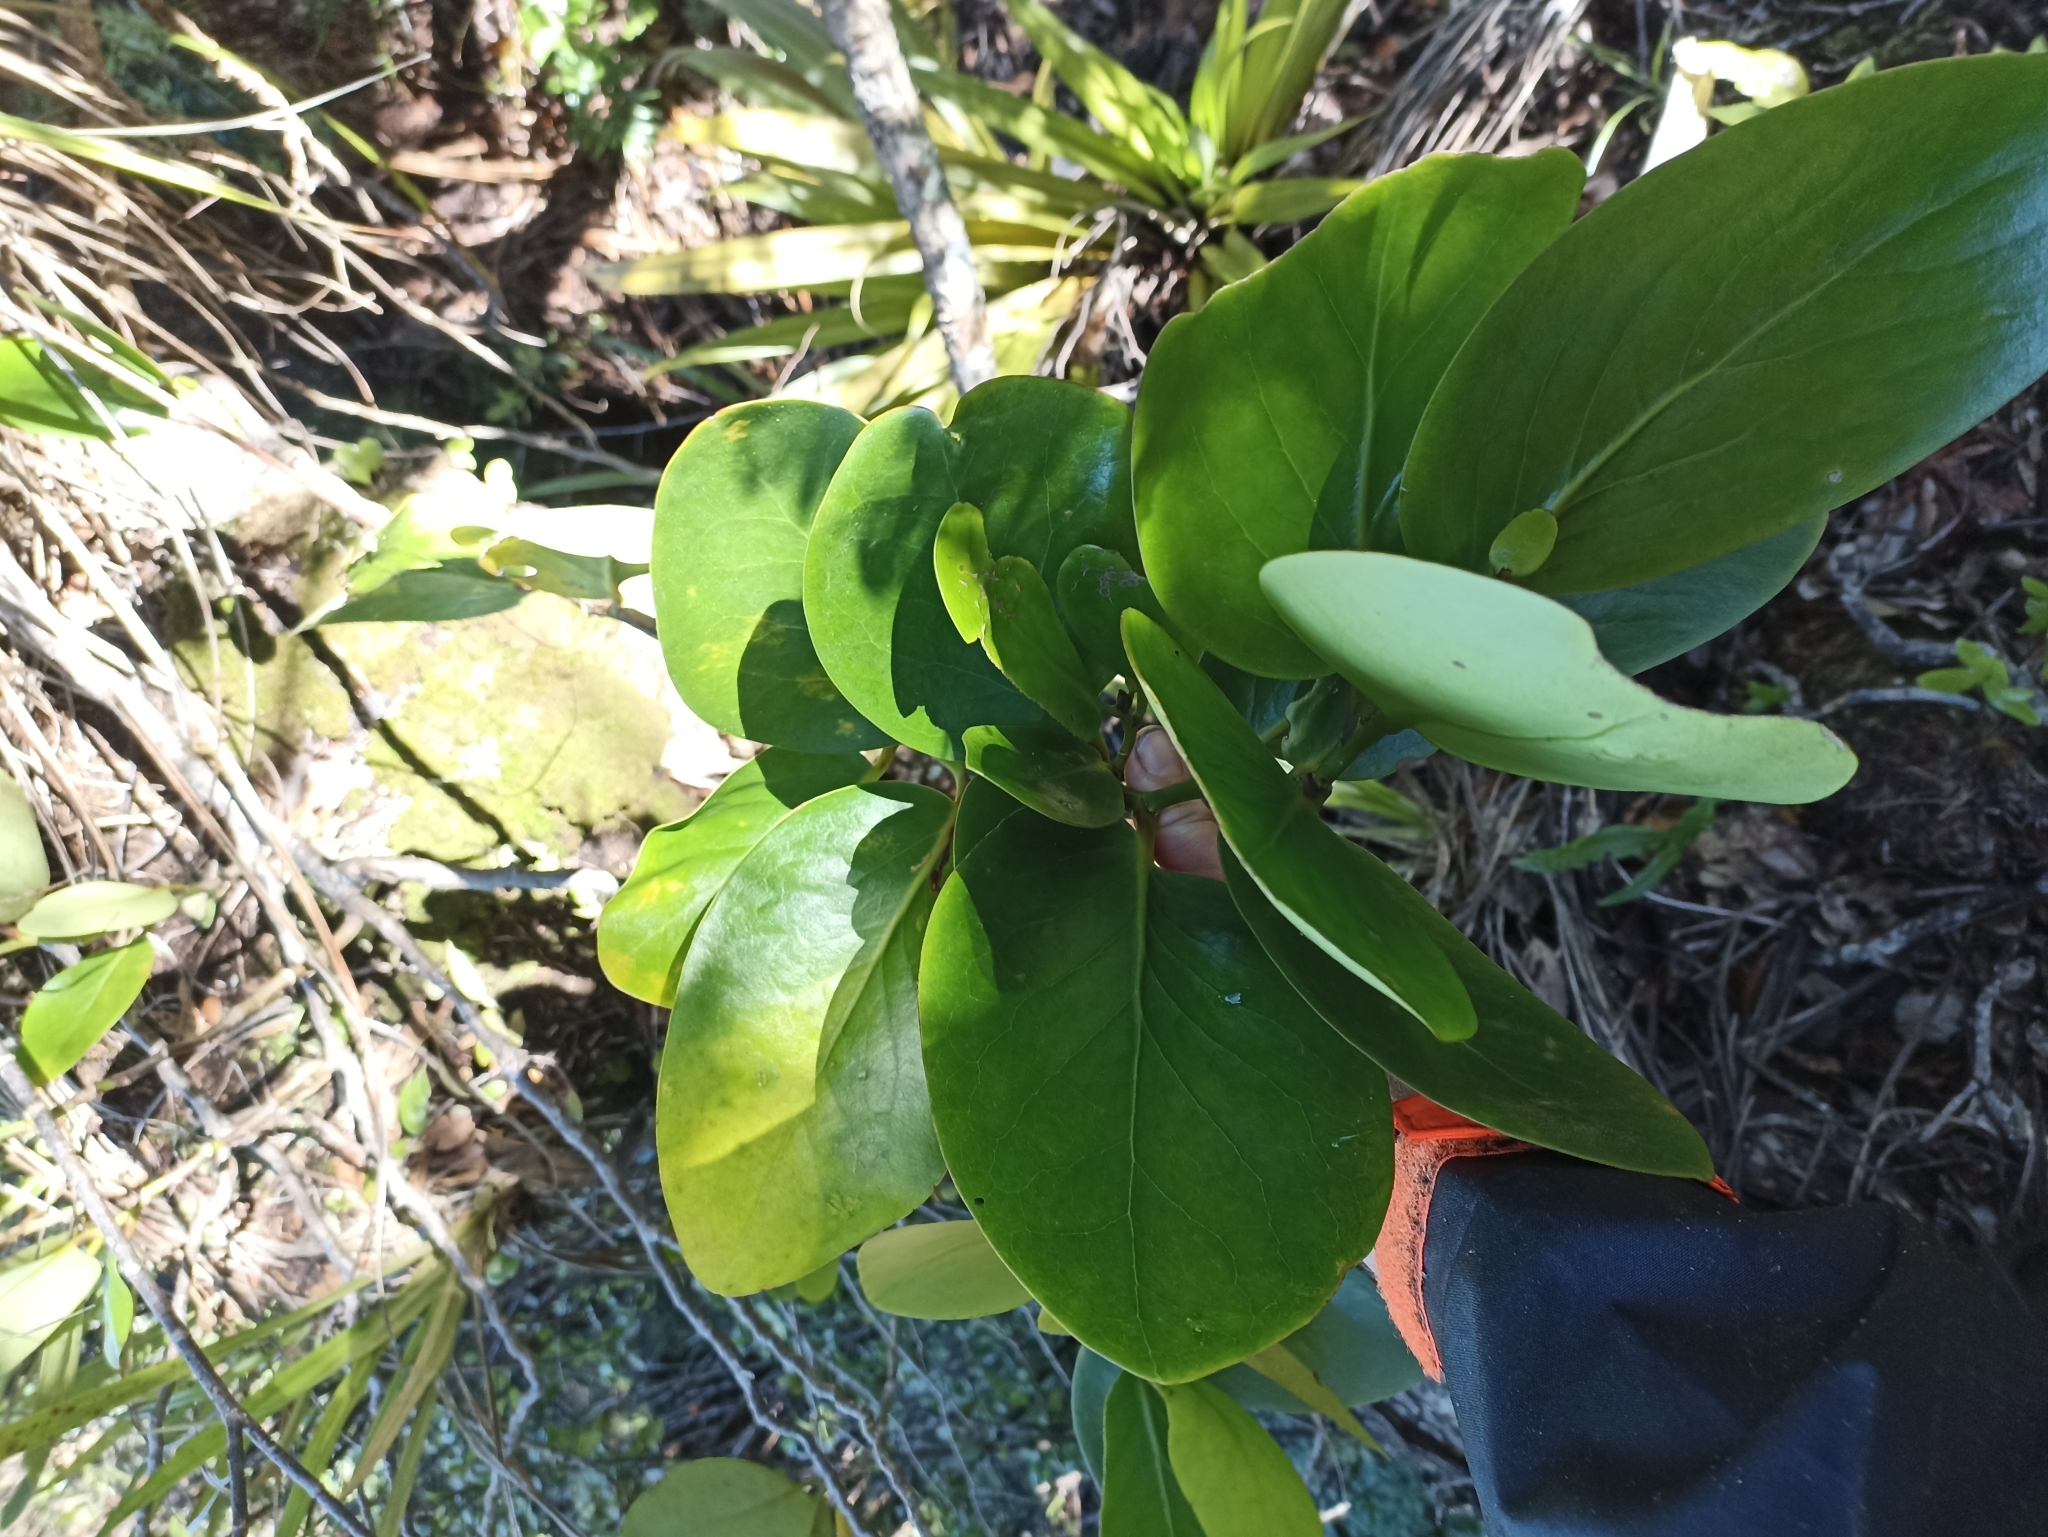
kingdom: Plantae
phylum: Tracheophyta
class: Magnoliopsida
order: Apiales
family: Griseliniaceae
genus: Griselinia
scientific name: Griselinia lucida
